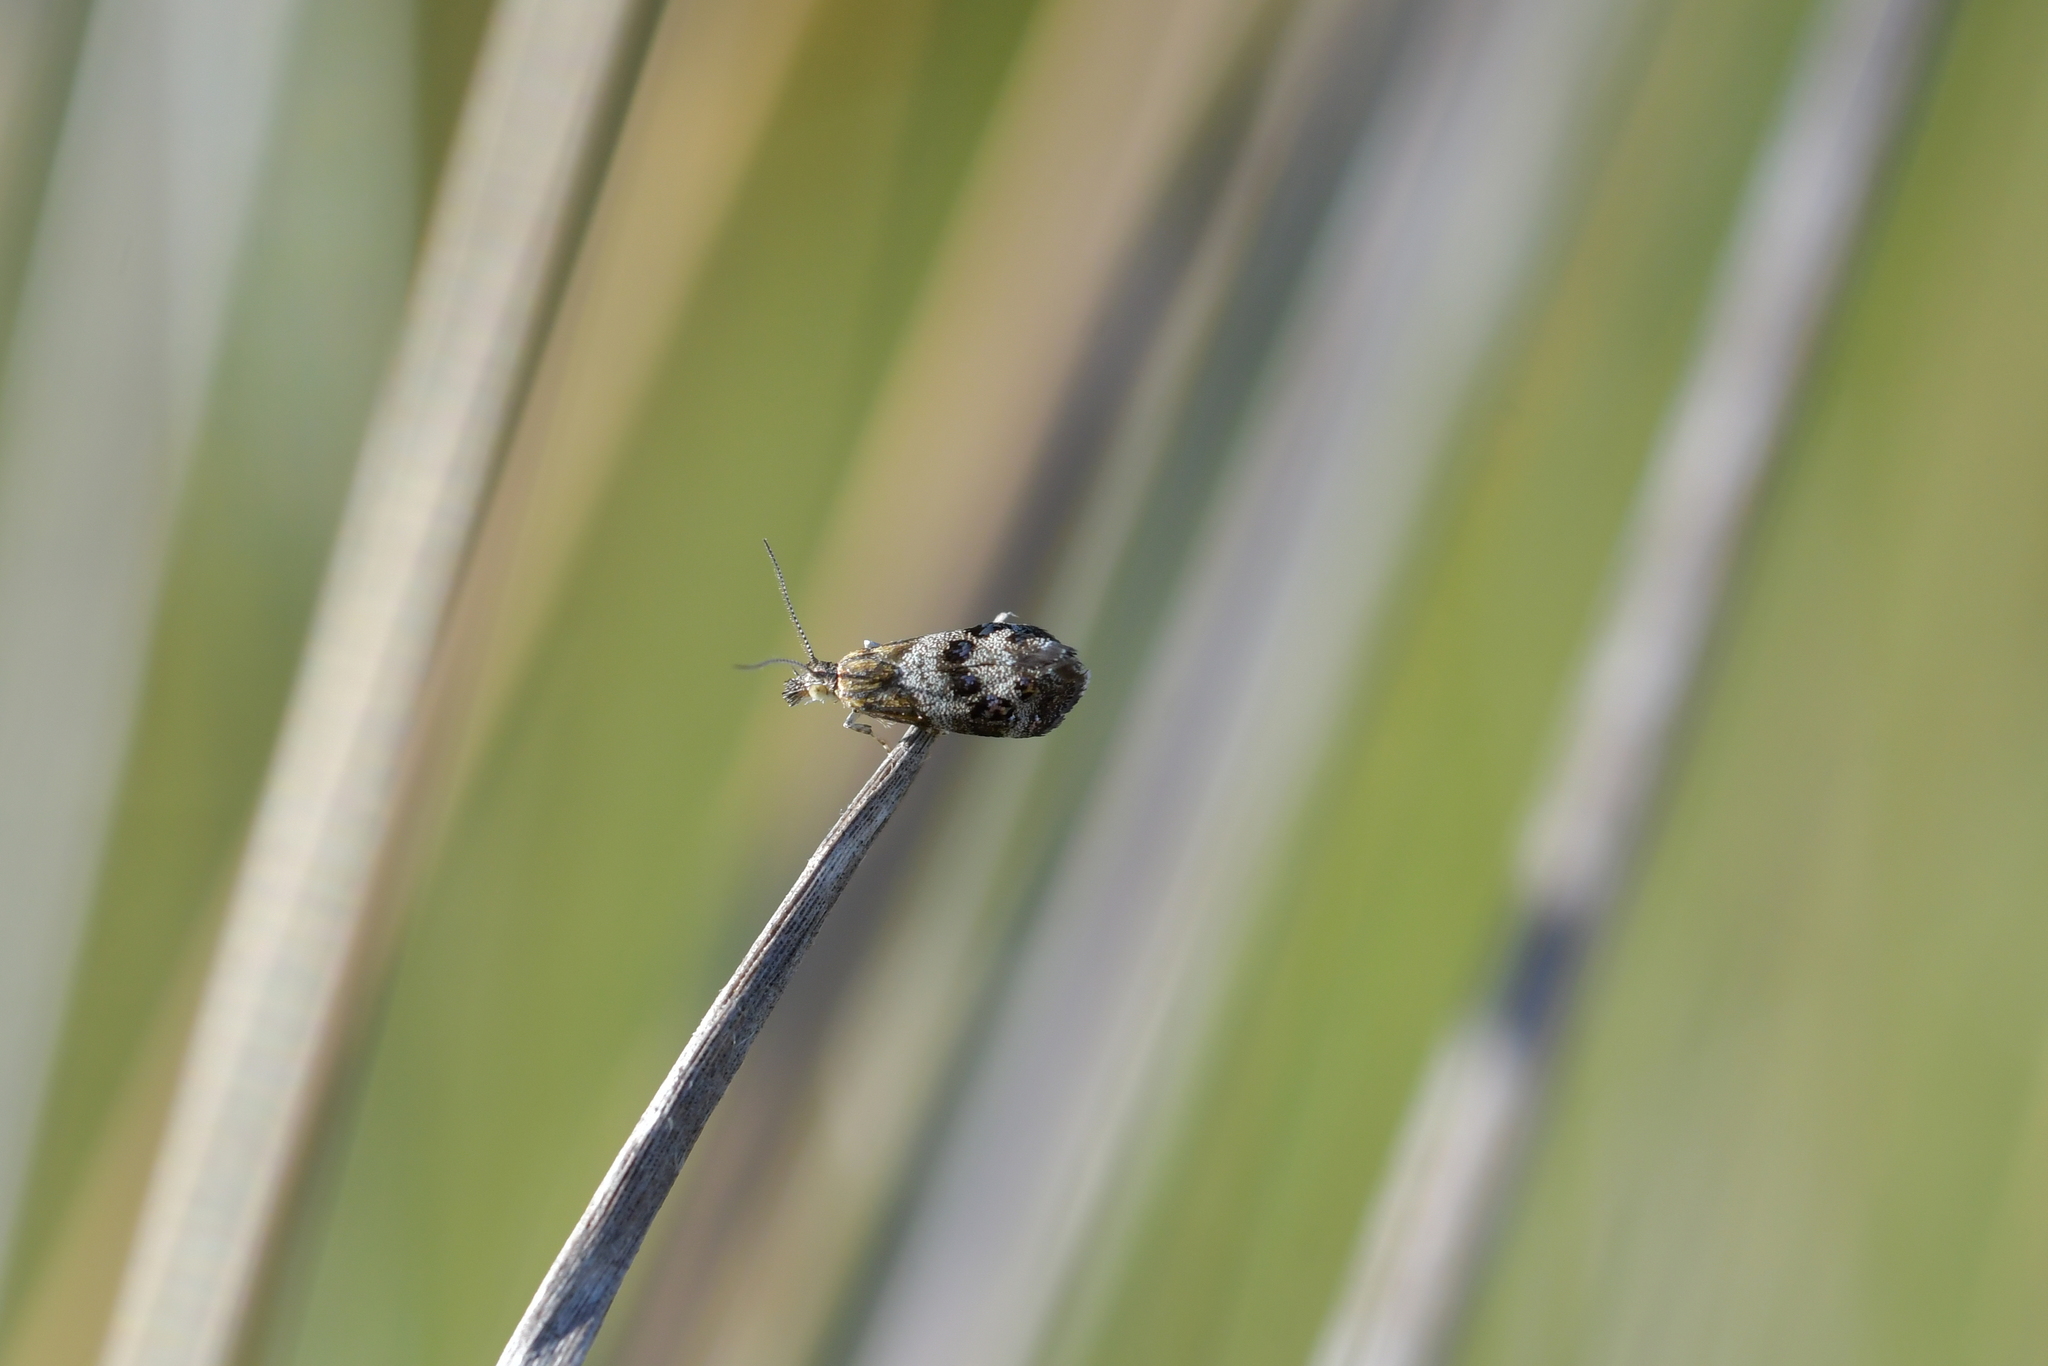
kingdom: Animalia
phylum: Arthropoda
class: Insecta
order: Lepidoptera
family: Choreutidae
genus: Tebenna
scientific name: Tebenna micalis
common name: Vagrant twitcher
